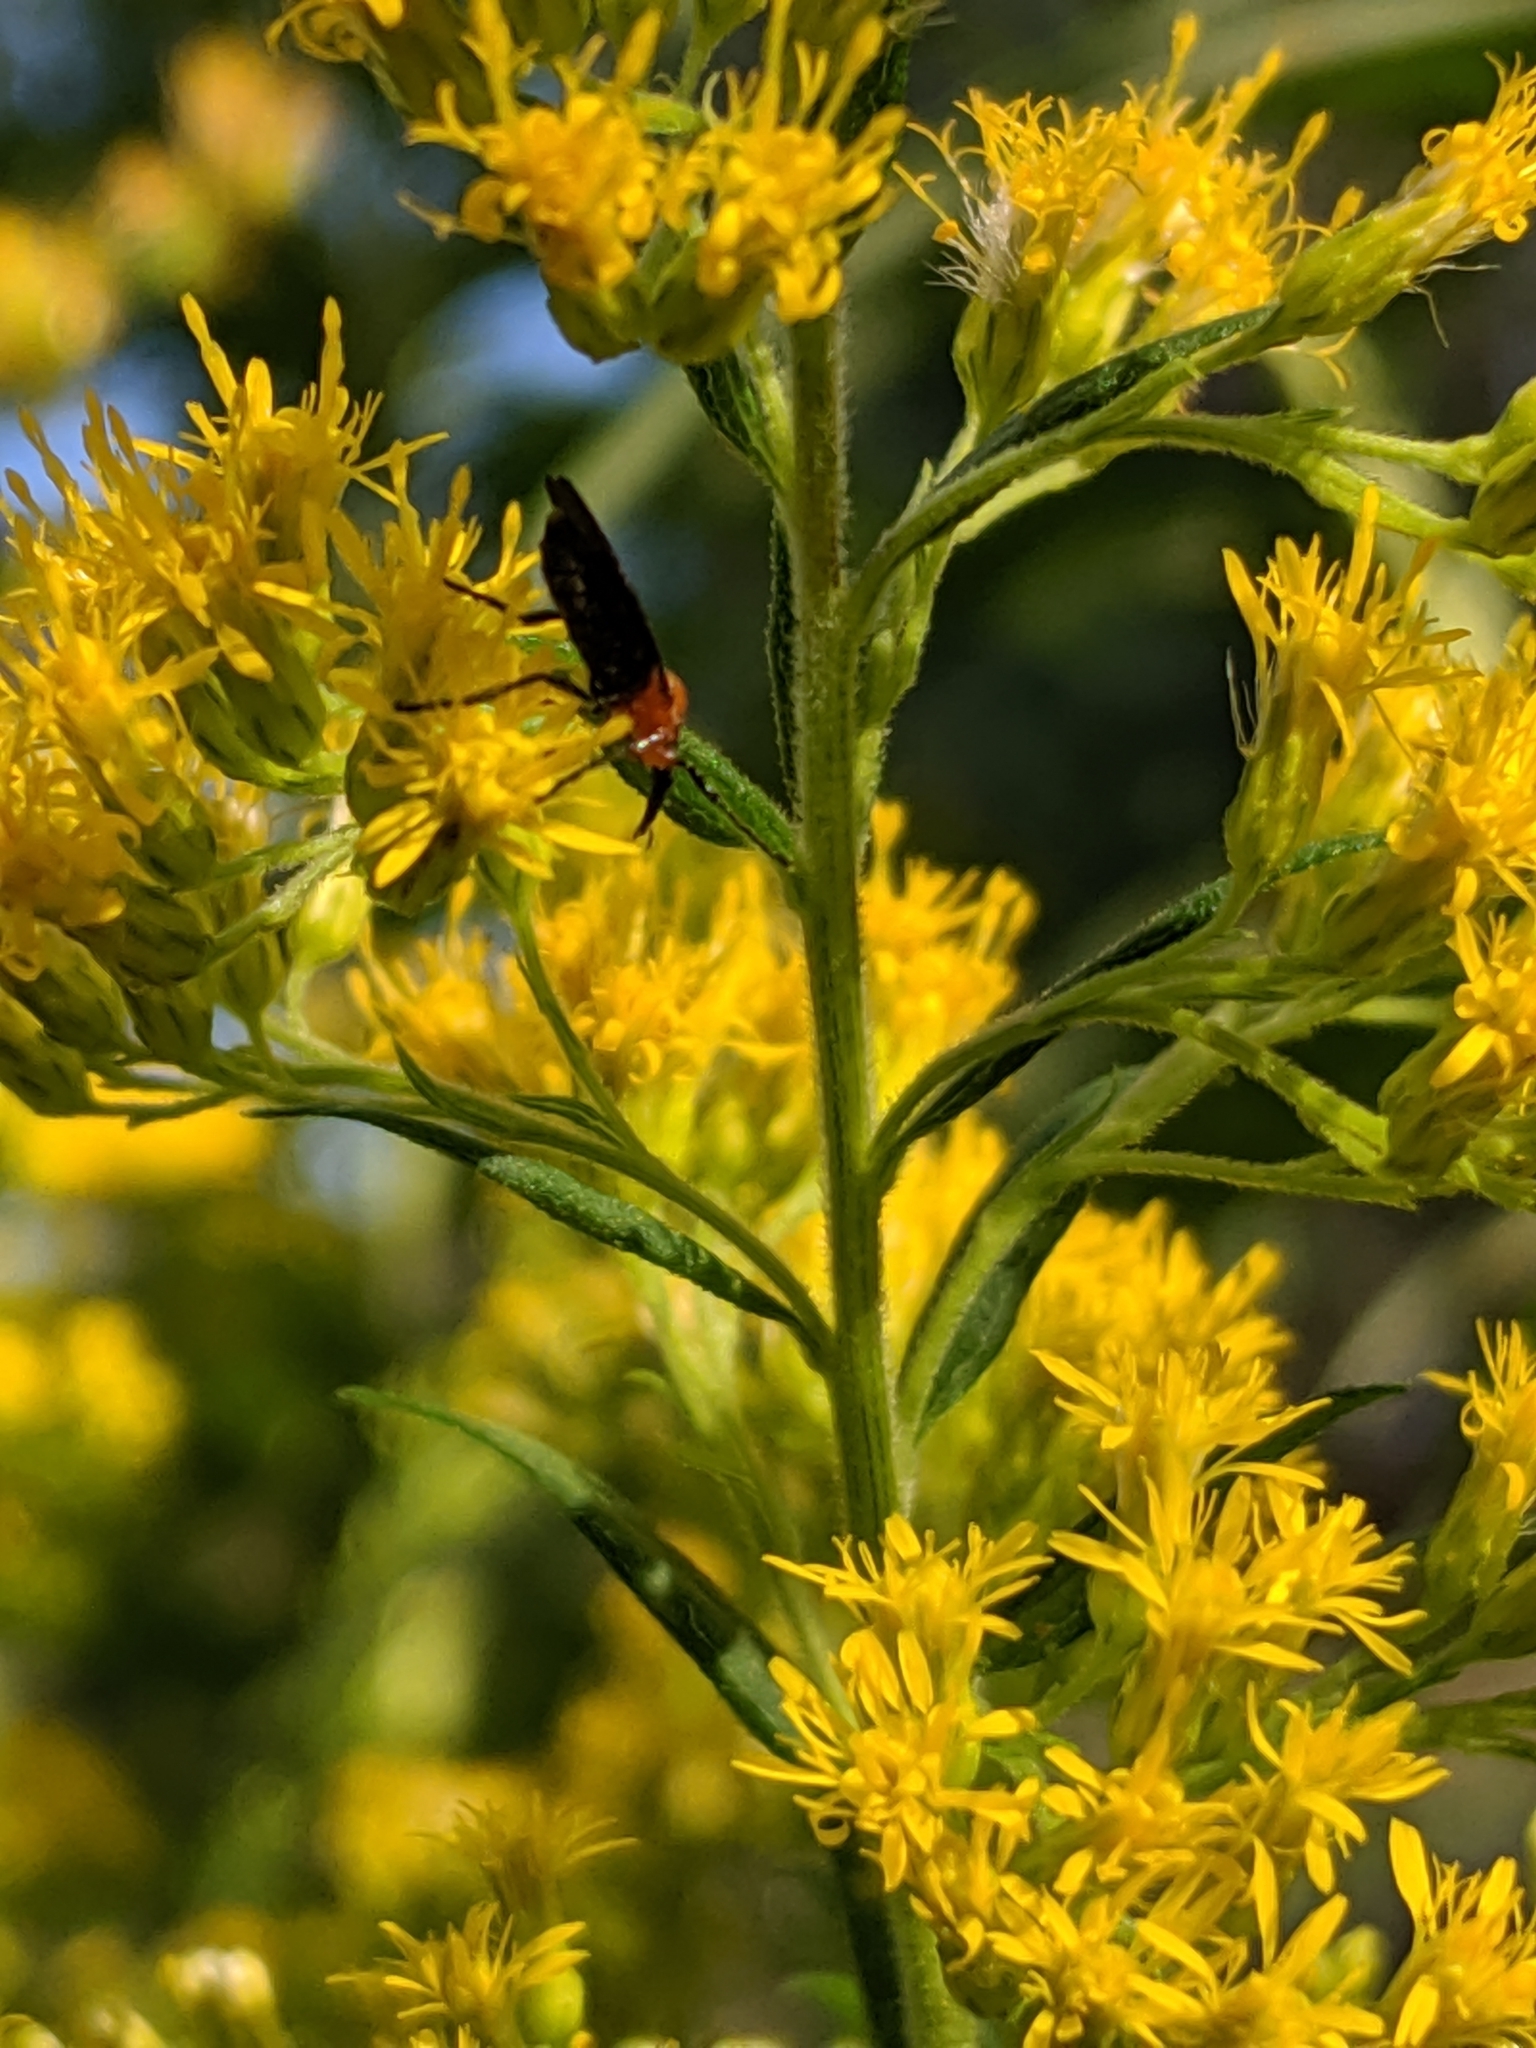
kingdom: Animalia
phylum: Arthropoda
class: Insecta
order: Diptera
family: Bibionidae
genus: Dilophus
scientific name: Dilophus spinipes
